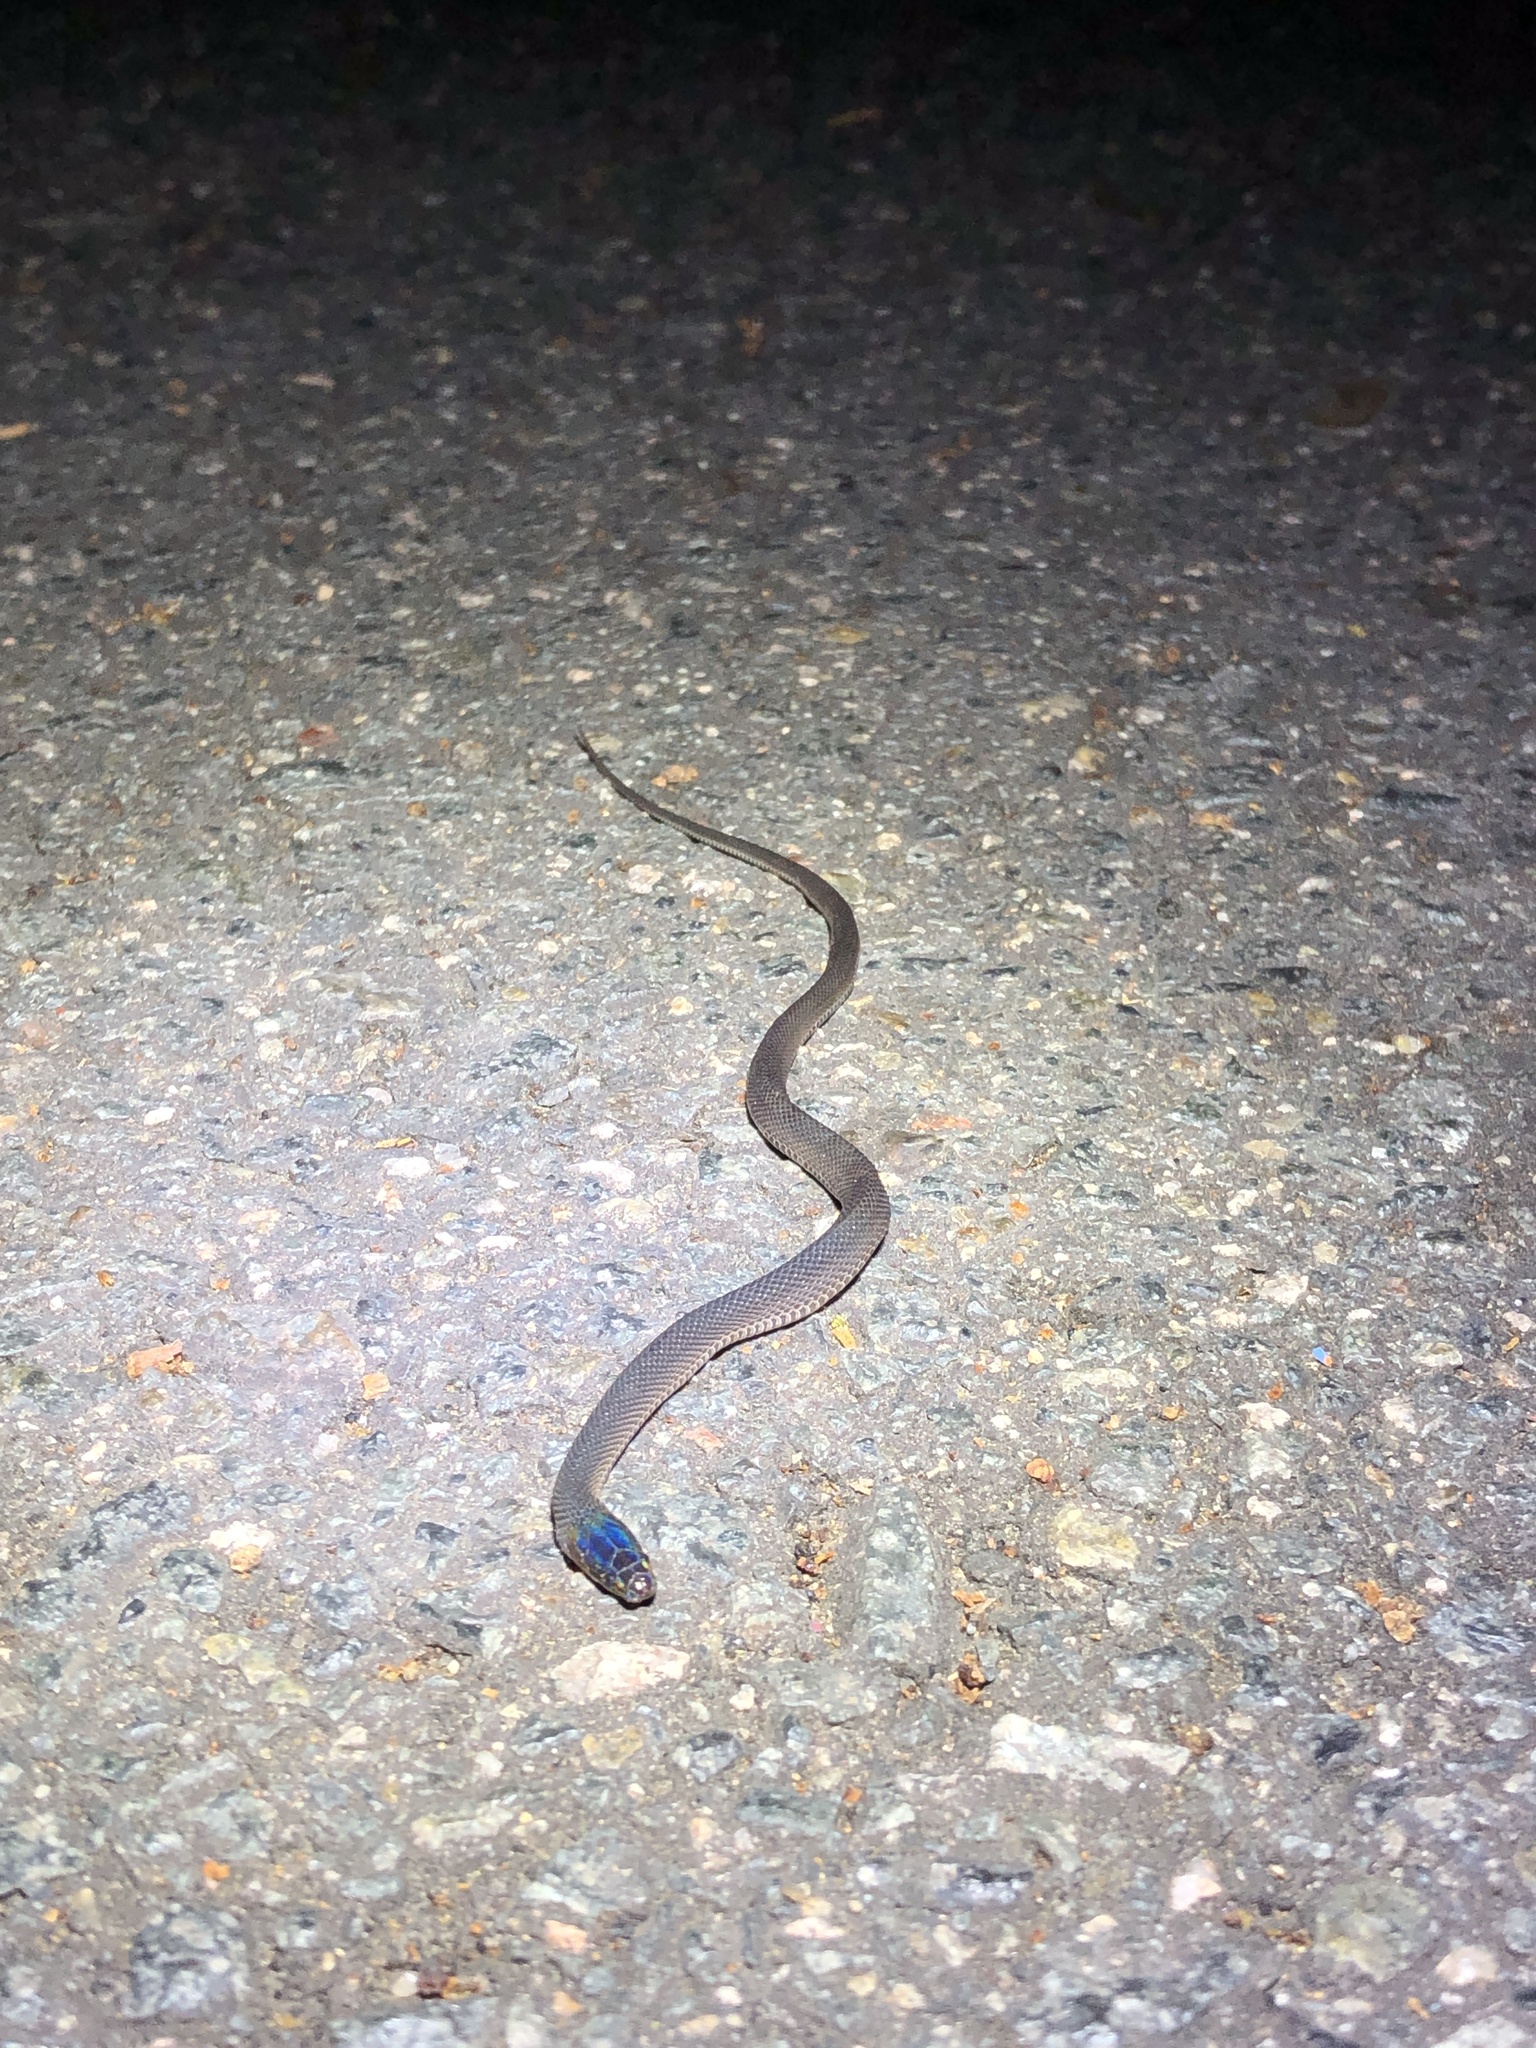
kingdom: Animalia
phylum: Chordata
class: Squamata
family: Xenodermidae
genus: Achalinus
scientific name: Achalinus rufescens
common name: Rufous burrowing snake
